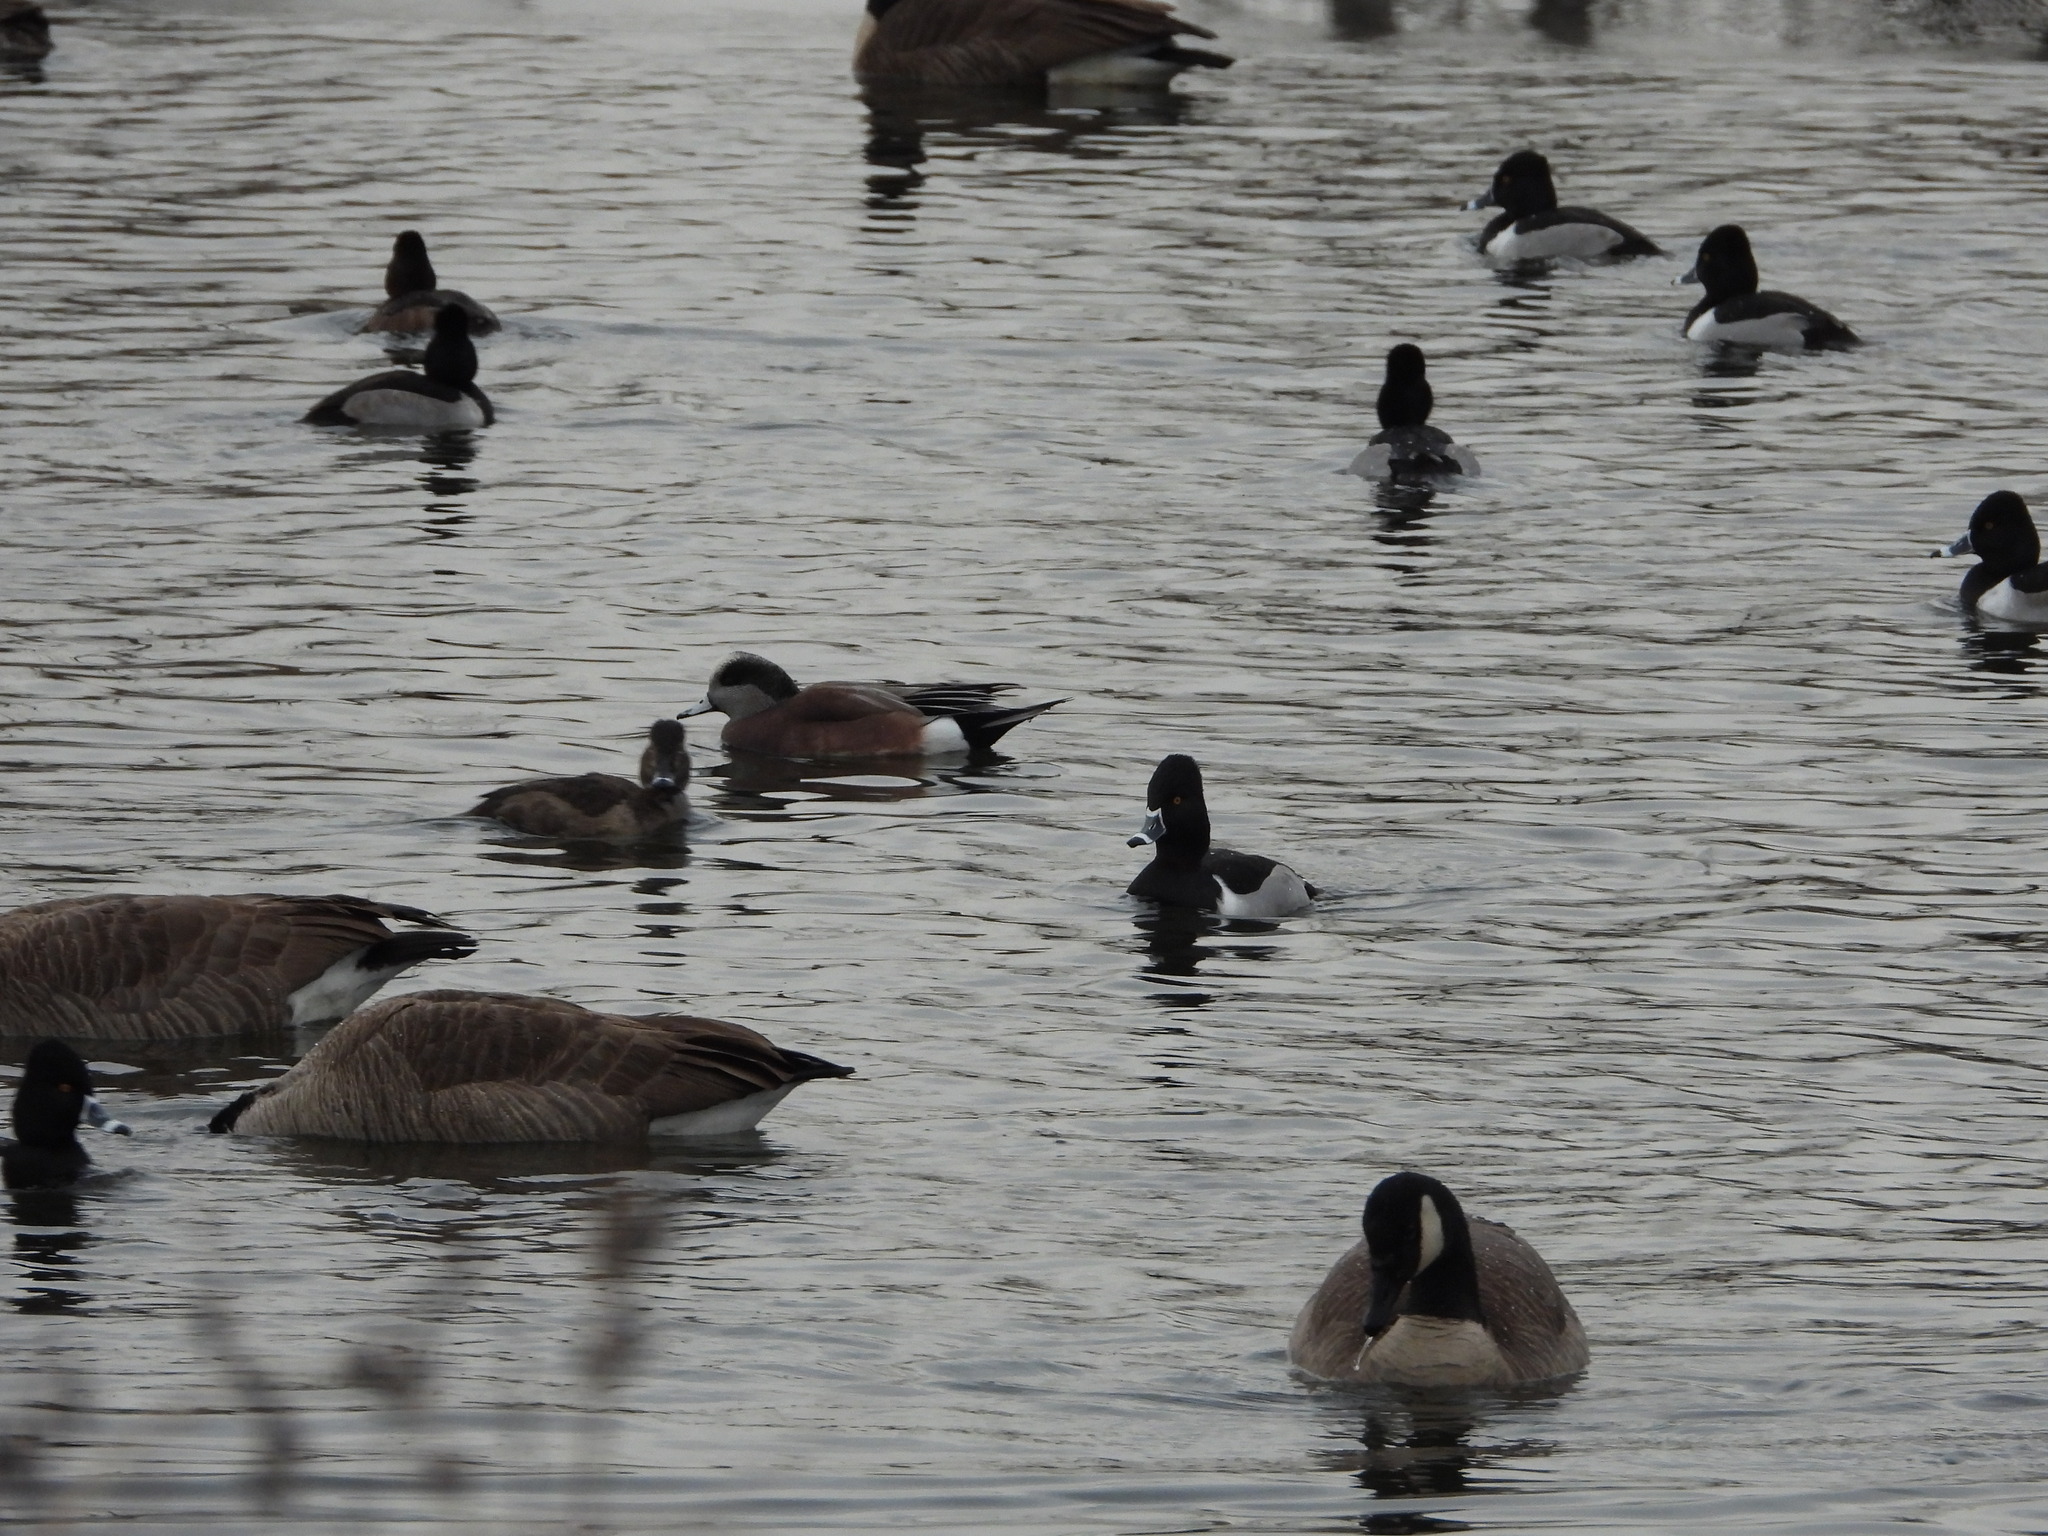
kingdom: Animalia
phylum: Chordata
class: Aves
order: Anseriformes
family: Anatidae
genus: Aythya
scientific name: Aythya collaris
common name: Ring-necked duck
